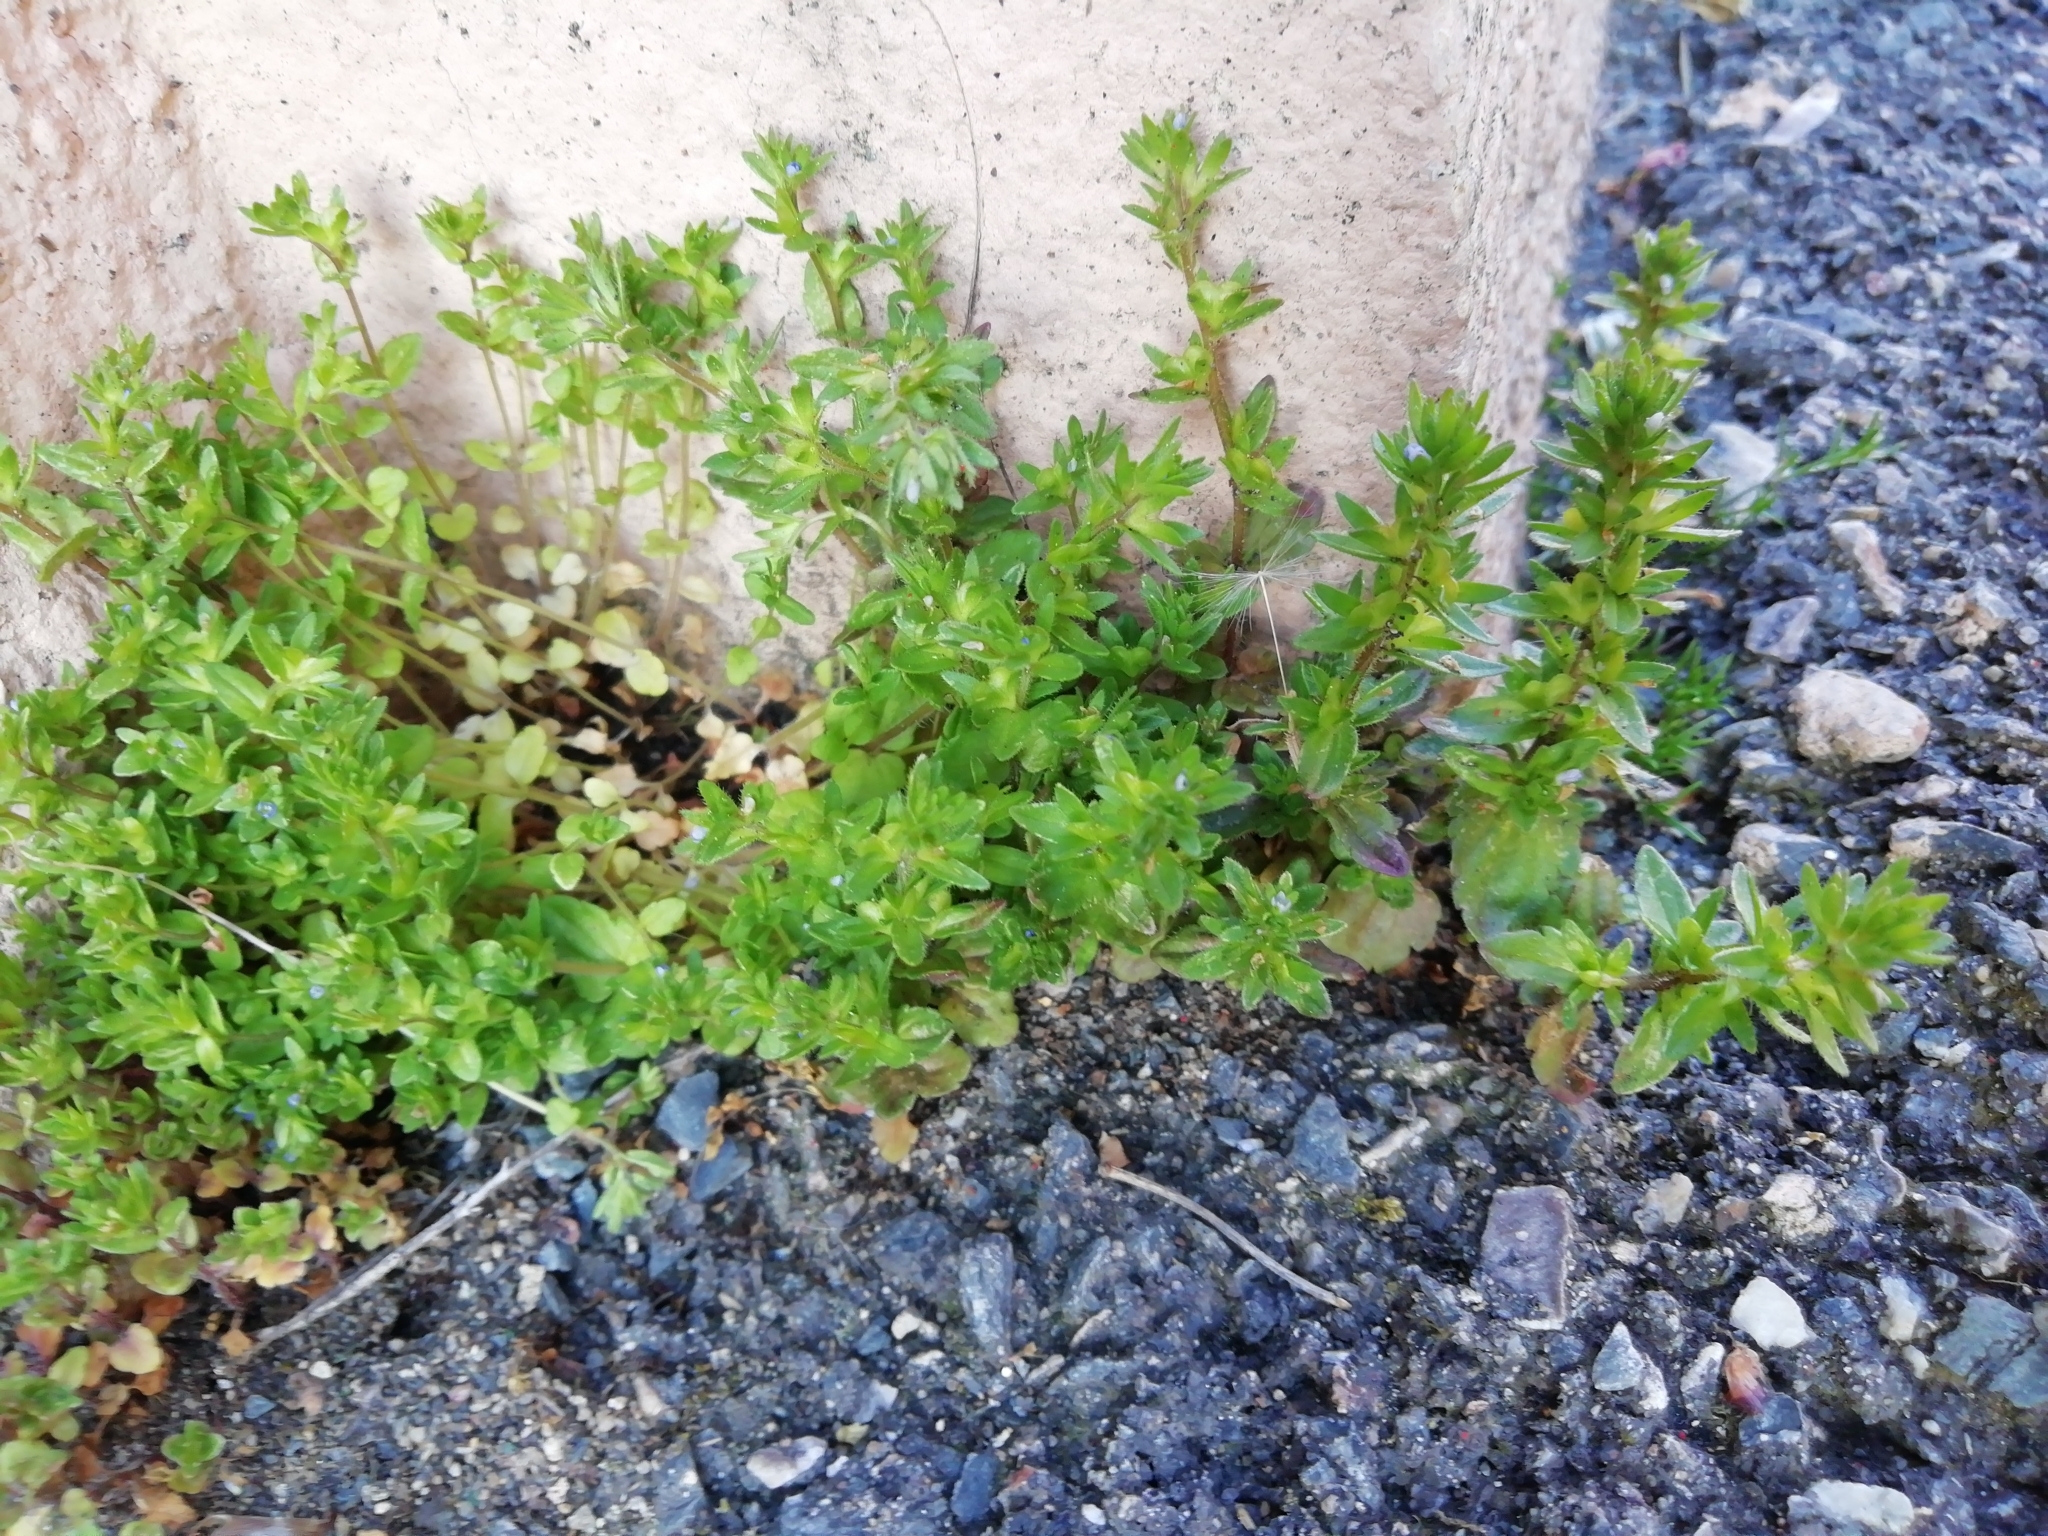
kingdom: Plantae
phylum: Tracheophyta
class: Magnoliopsida
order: Lamiales
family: Plantaginaceae
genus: Veronica
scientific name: Veronica arvensis
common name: Corn speedwell
